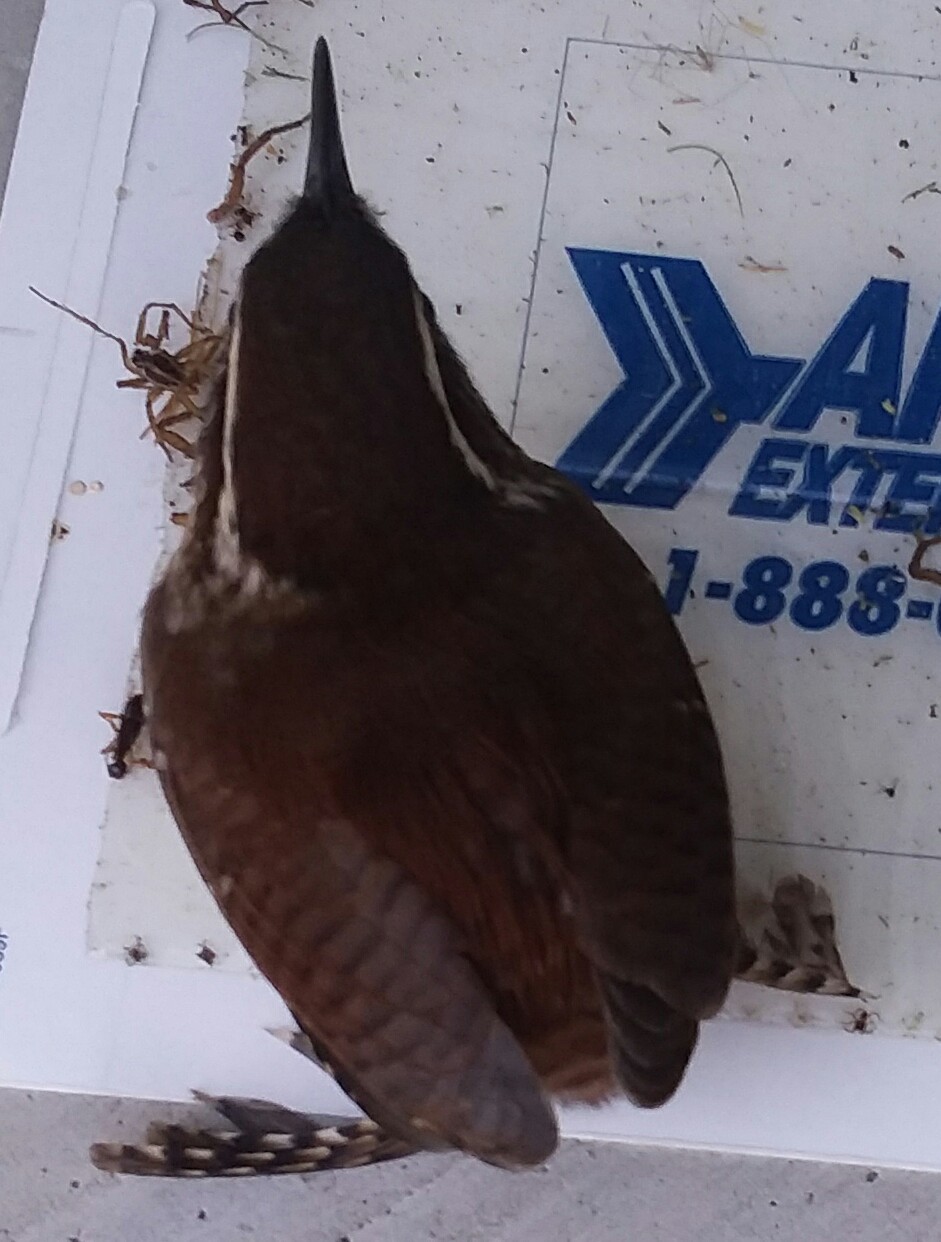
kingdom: Animalia
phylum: Chordata
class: Aves
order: Passeriformes
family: Troglodytidae
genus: Thryothorus
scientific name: Thryothorus ludovicianus
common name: Carolina wren
